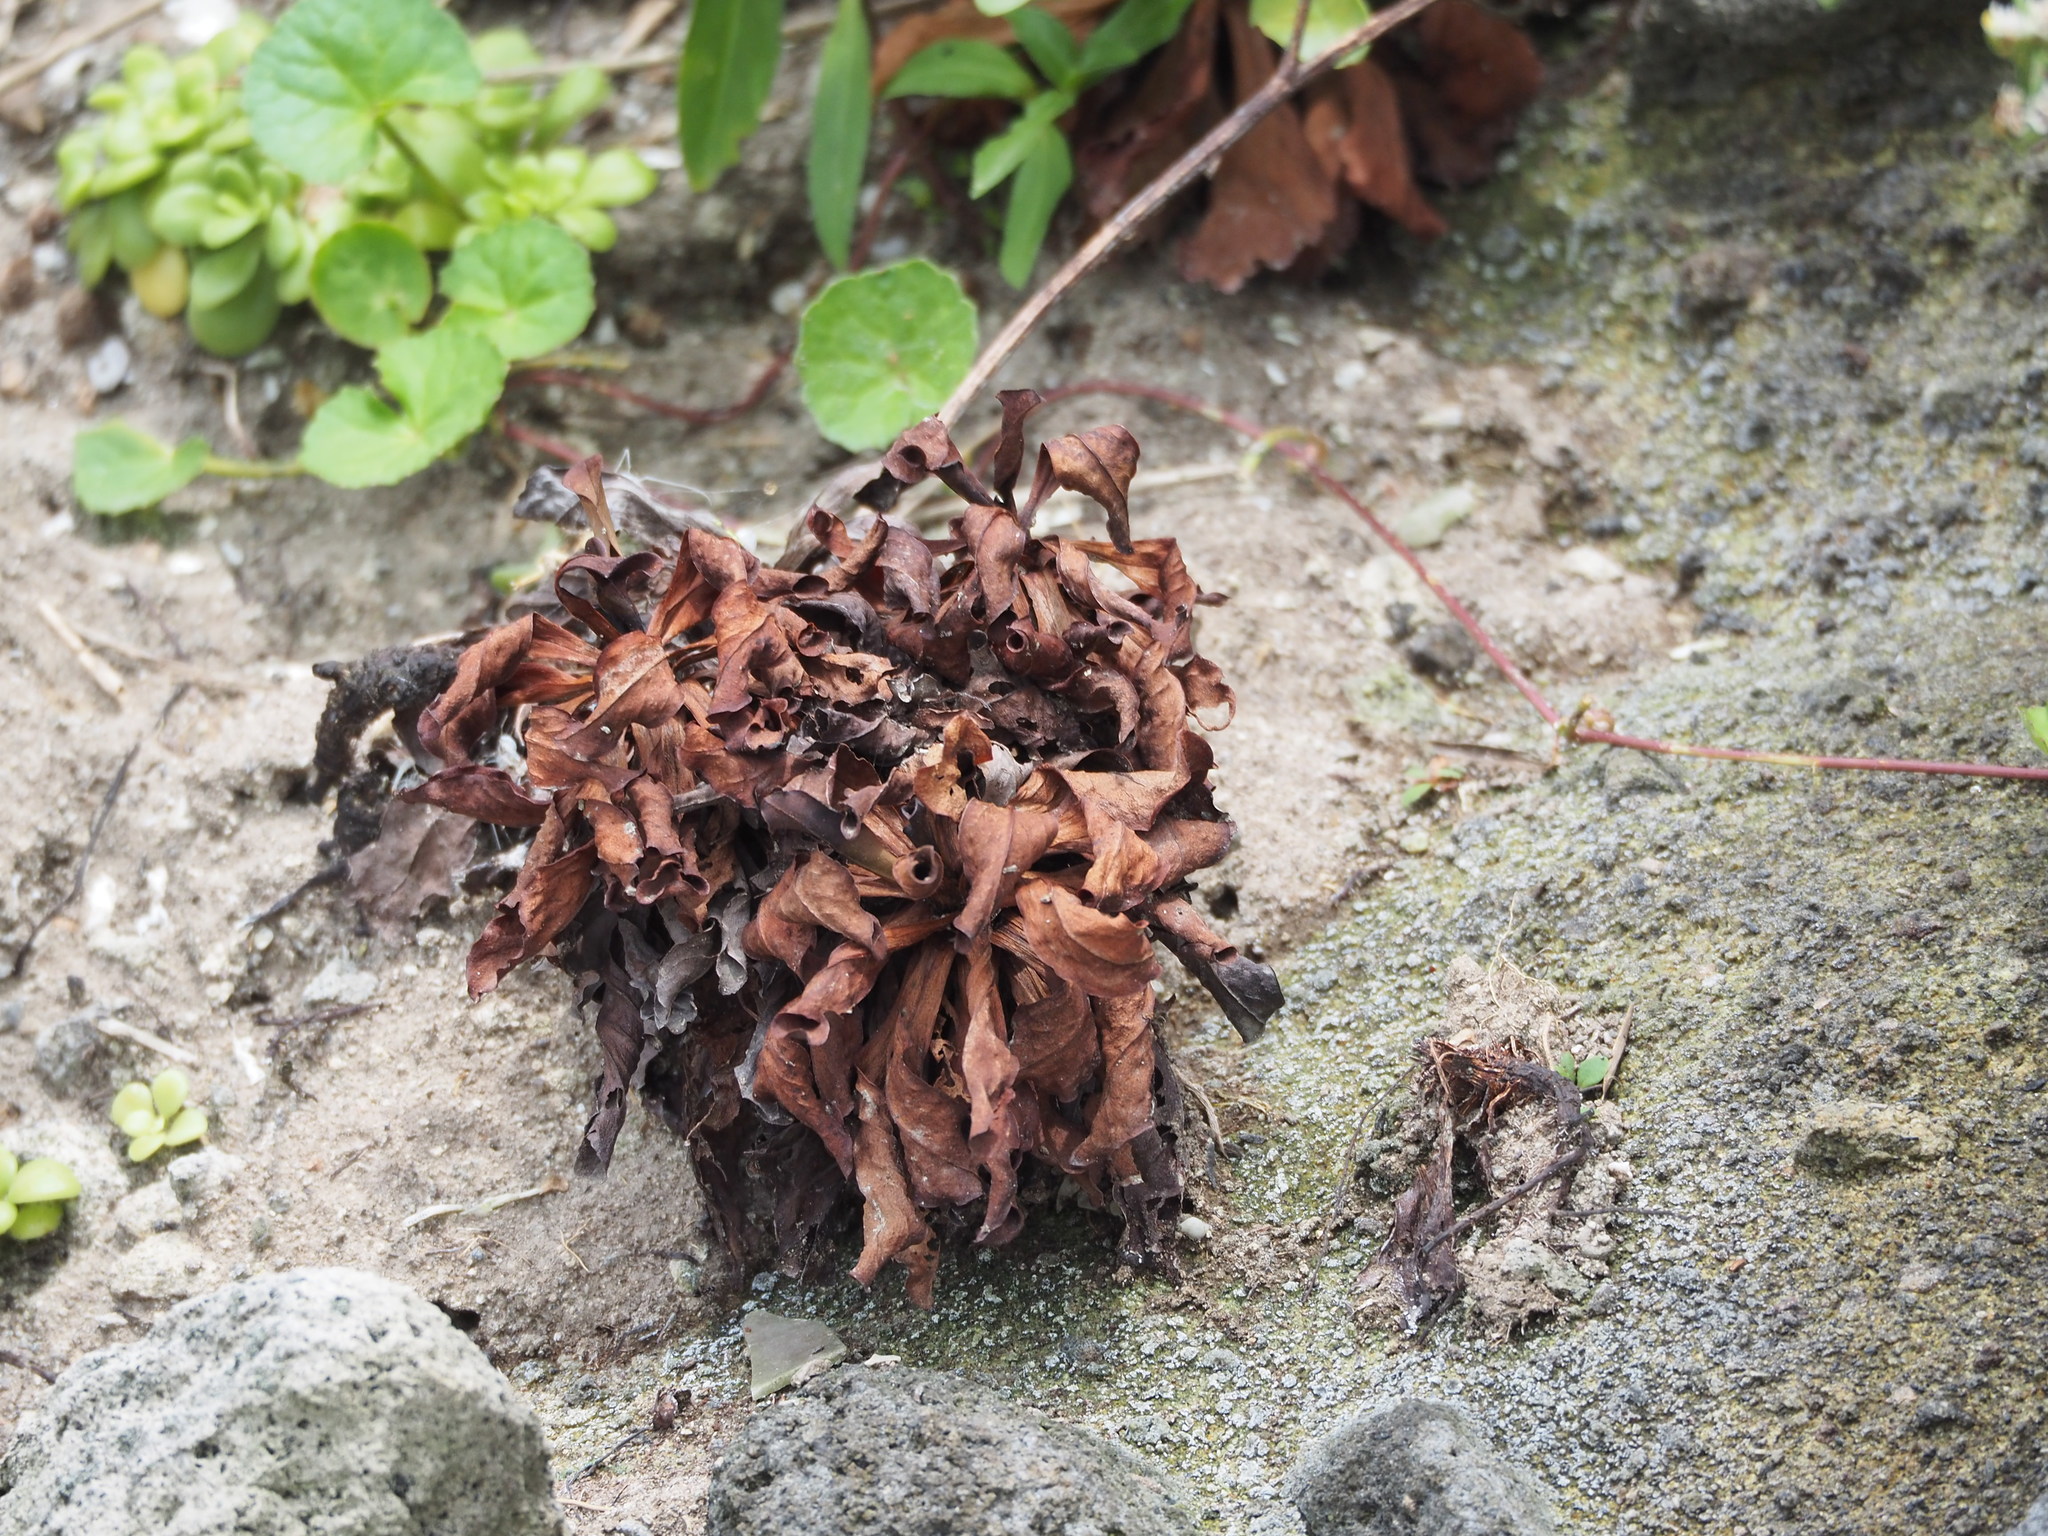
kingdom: Plantae
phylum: Tracheophyta
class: Magnoliopsida
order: Caryophyllales
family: Plumbaginaceae
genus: Limonium
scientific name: Limonium sinense
